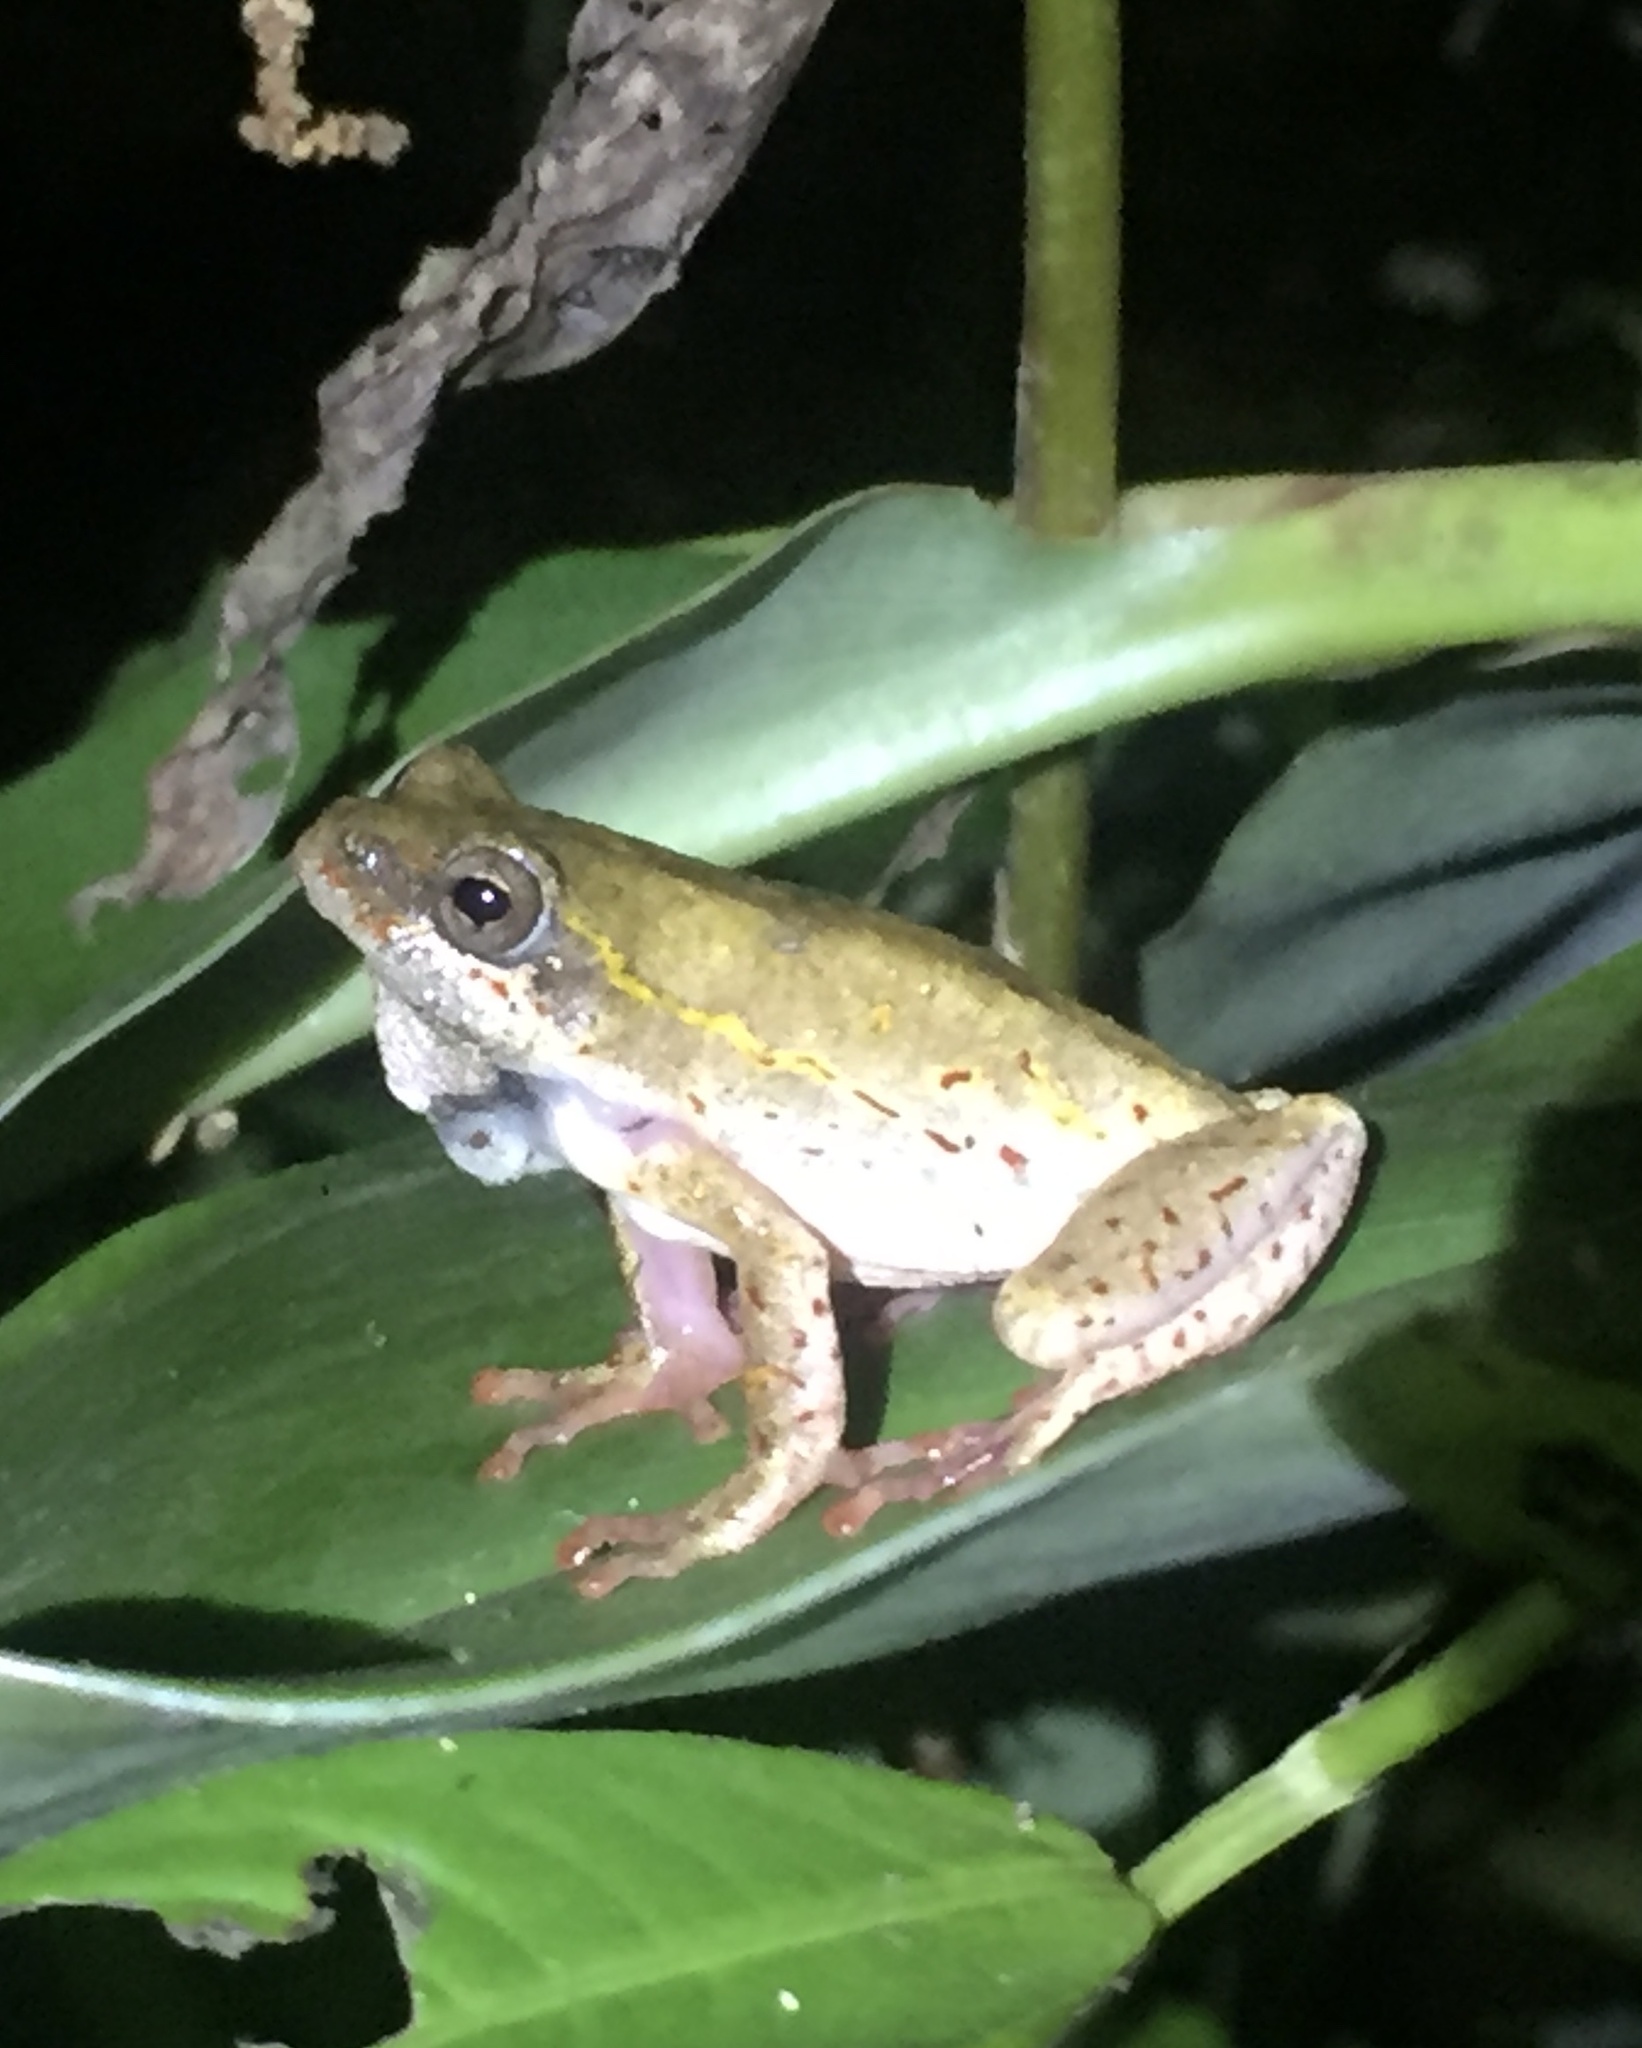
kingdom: Animalia
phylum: Chordata
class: Amphibia
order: Anura
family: Hyperoliidae
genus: Hyperolius
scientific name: Hyperolius marmoratus
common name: Painted reed frog
